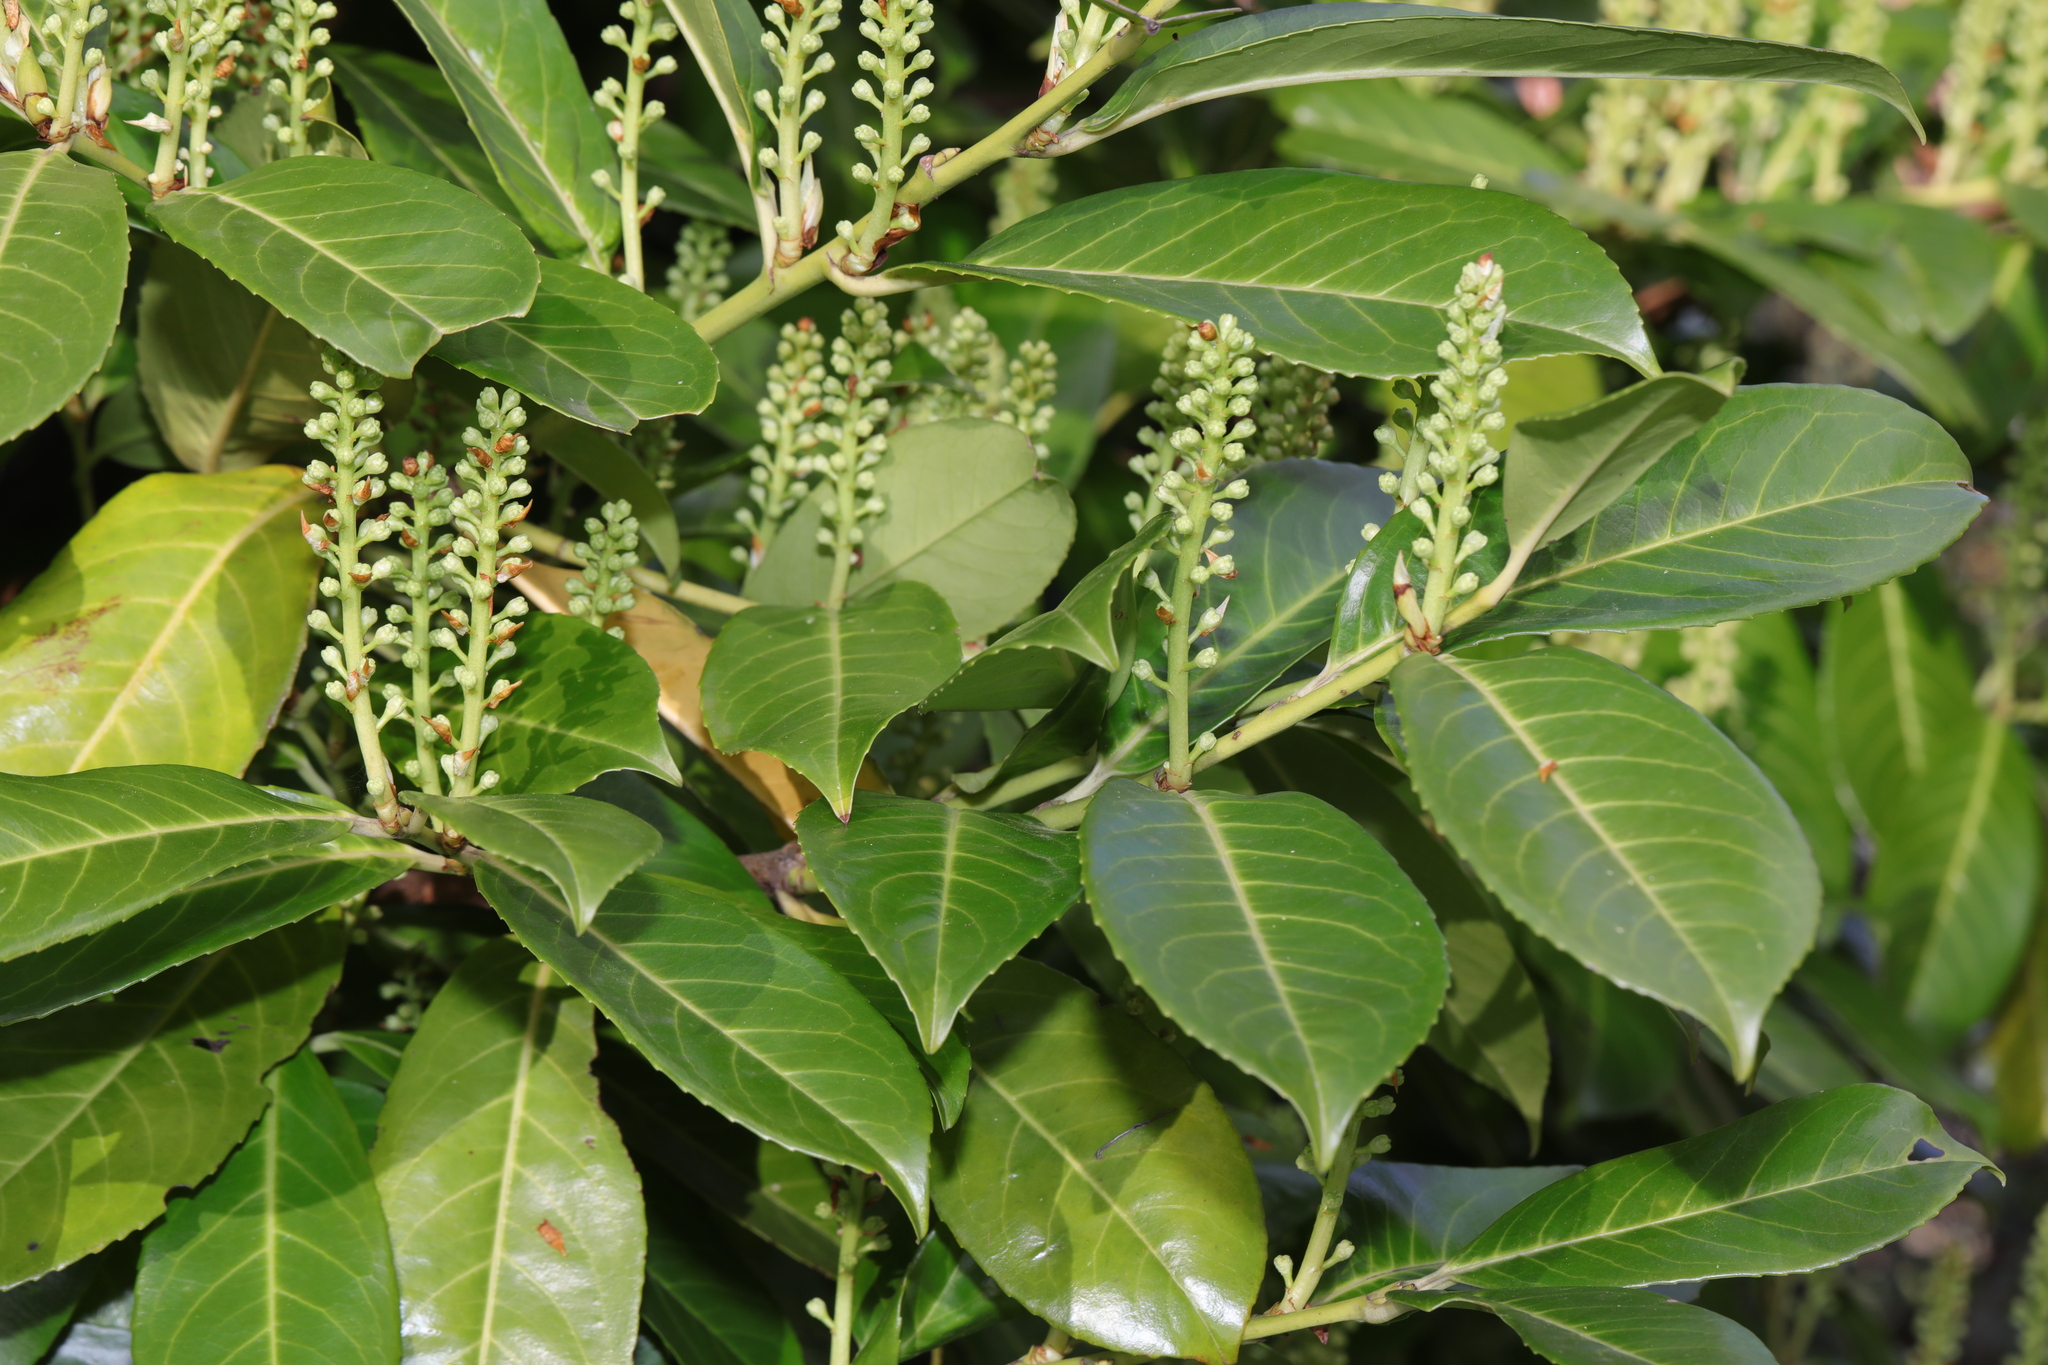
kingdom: Plantae
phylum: Tracheophyta
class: Magnoliopsida
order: Rosales
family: Rosaceae
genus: Prunus
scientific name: Prunus laurocerasus
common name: Cherry laurel
